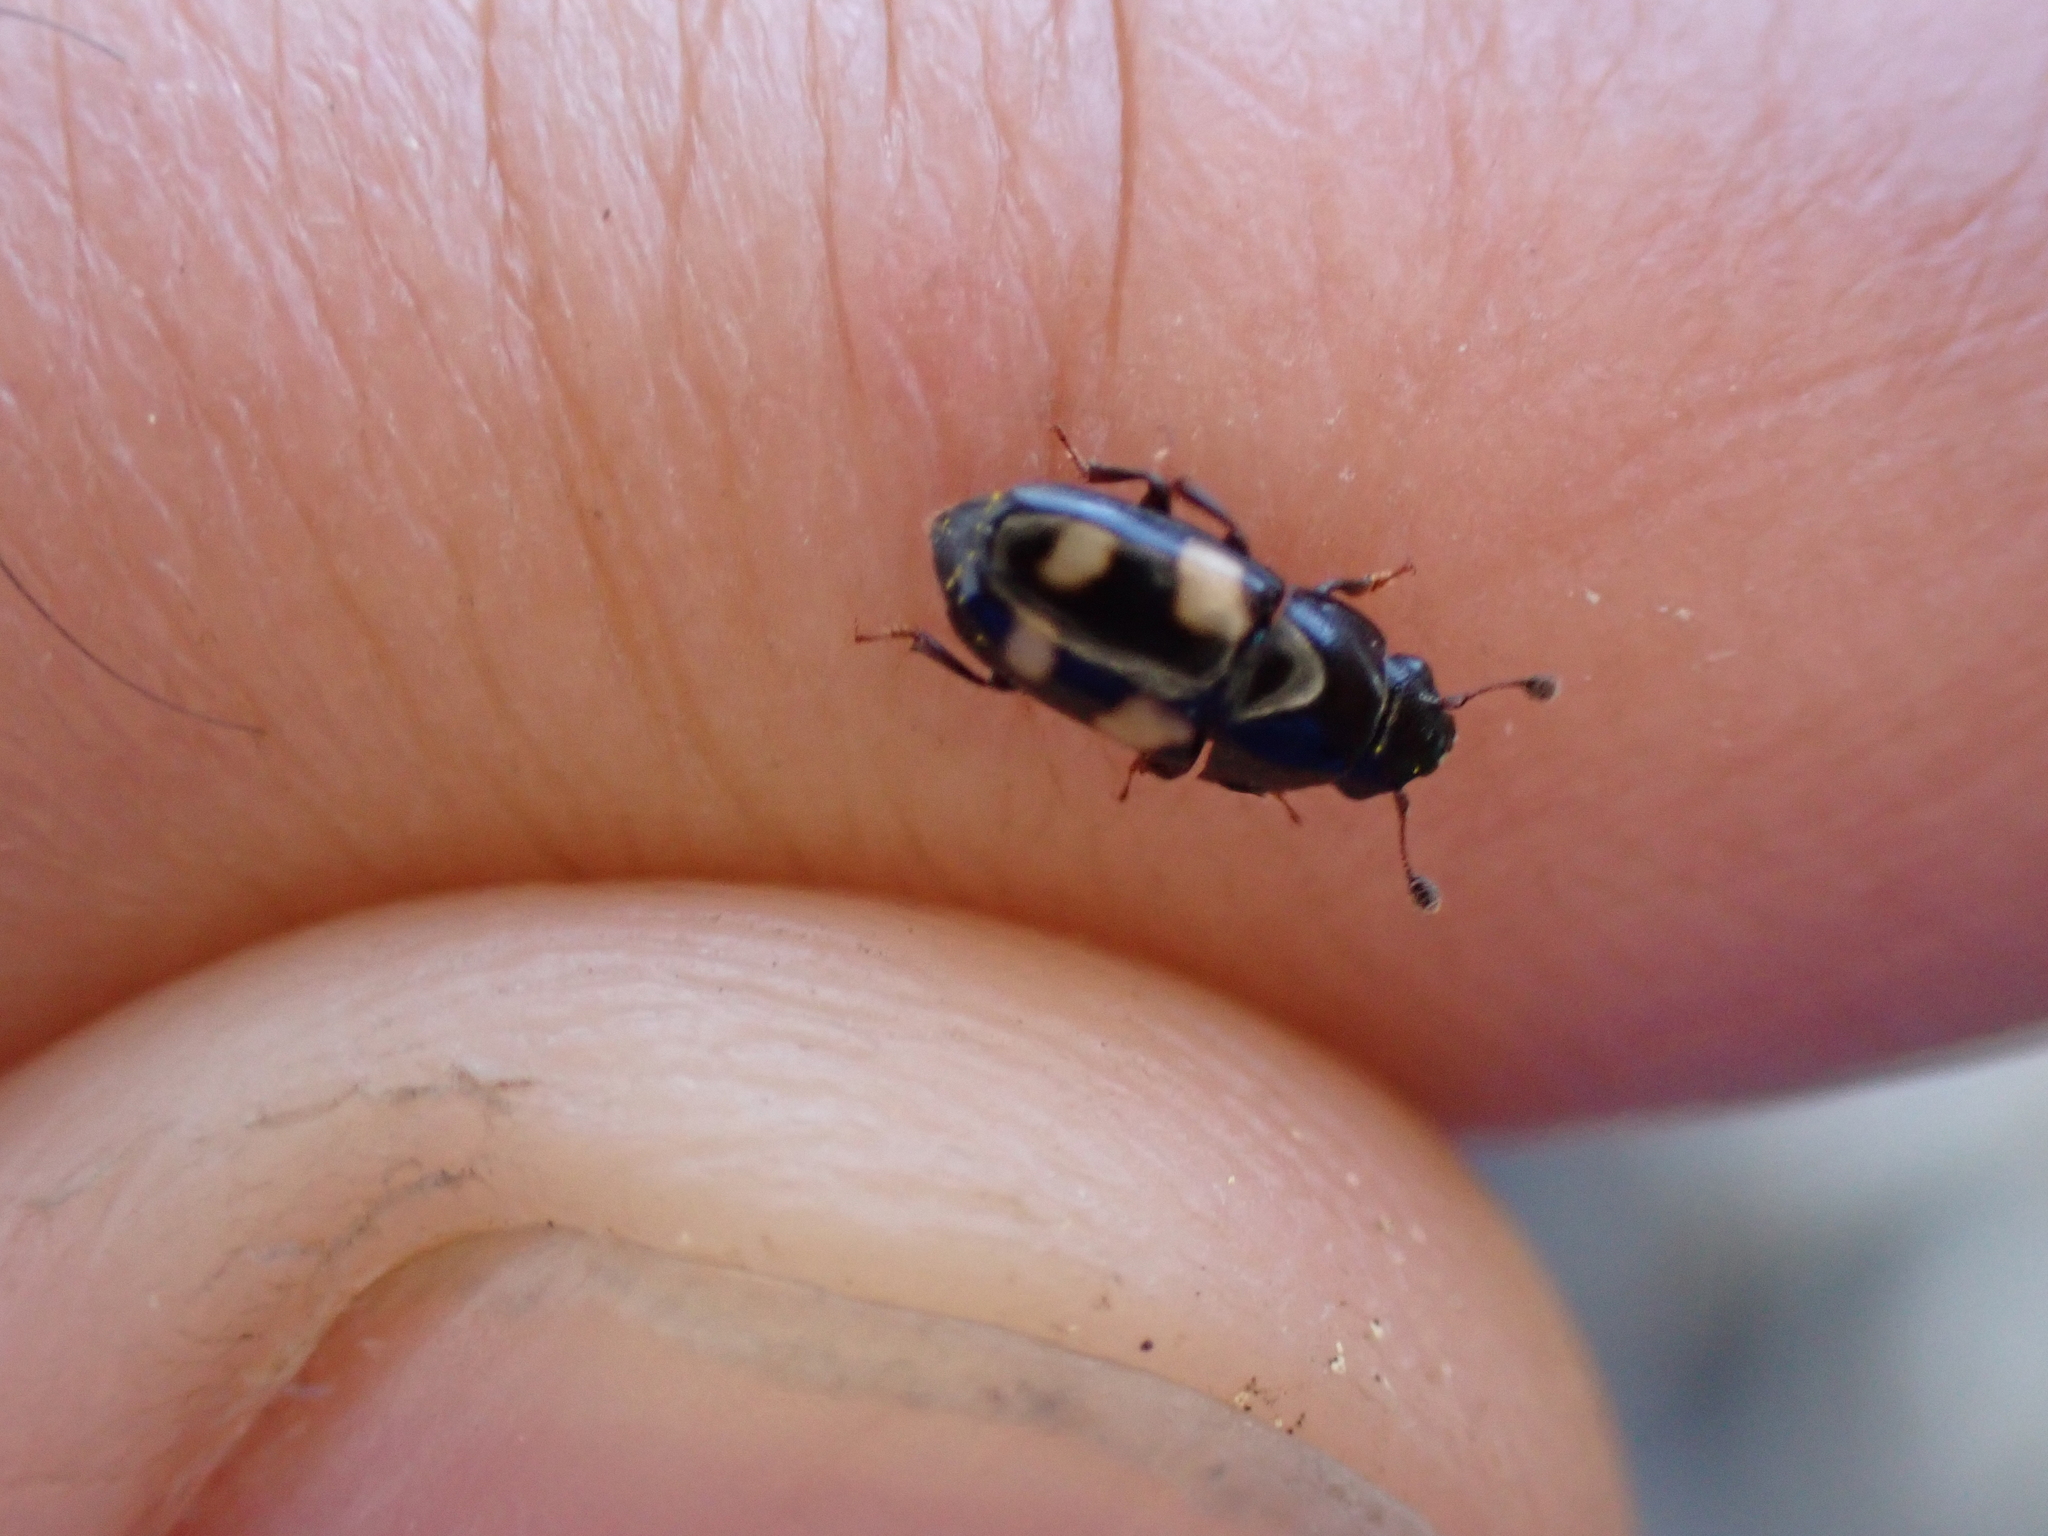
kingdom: Animalia
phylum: Arthropoda
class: Insecta
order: Coleoptera
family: Nitidulidae
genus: Glischrochilus
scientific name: Glischrochilus quadrisignatus
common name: Picnic beetle
